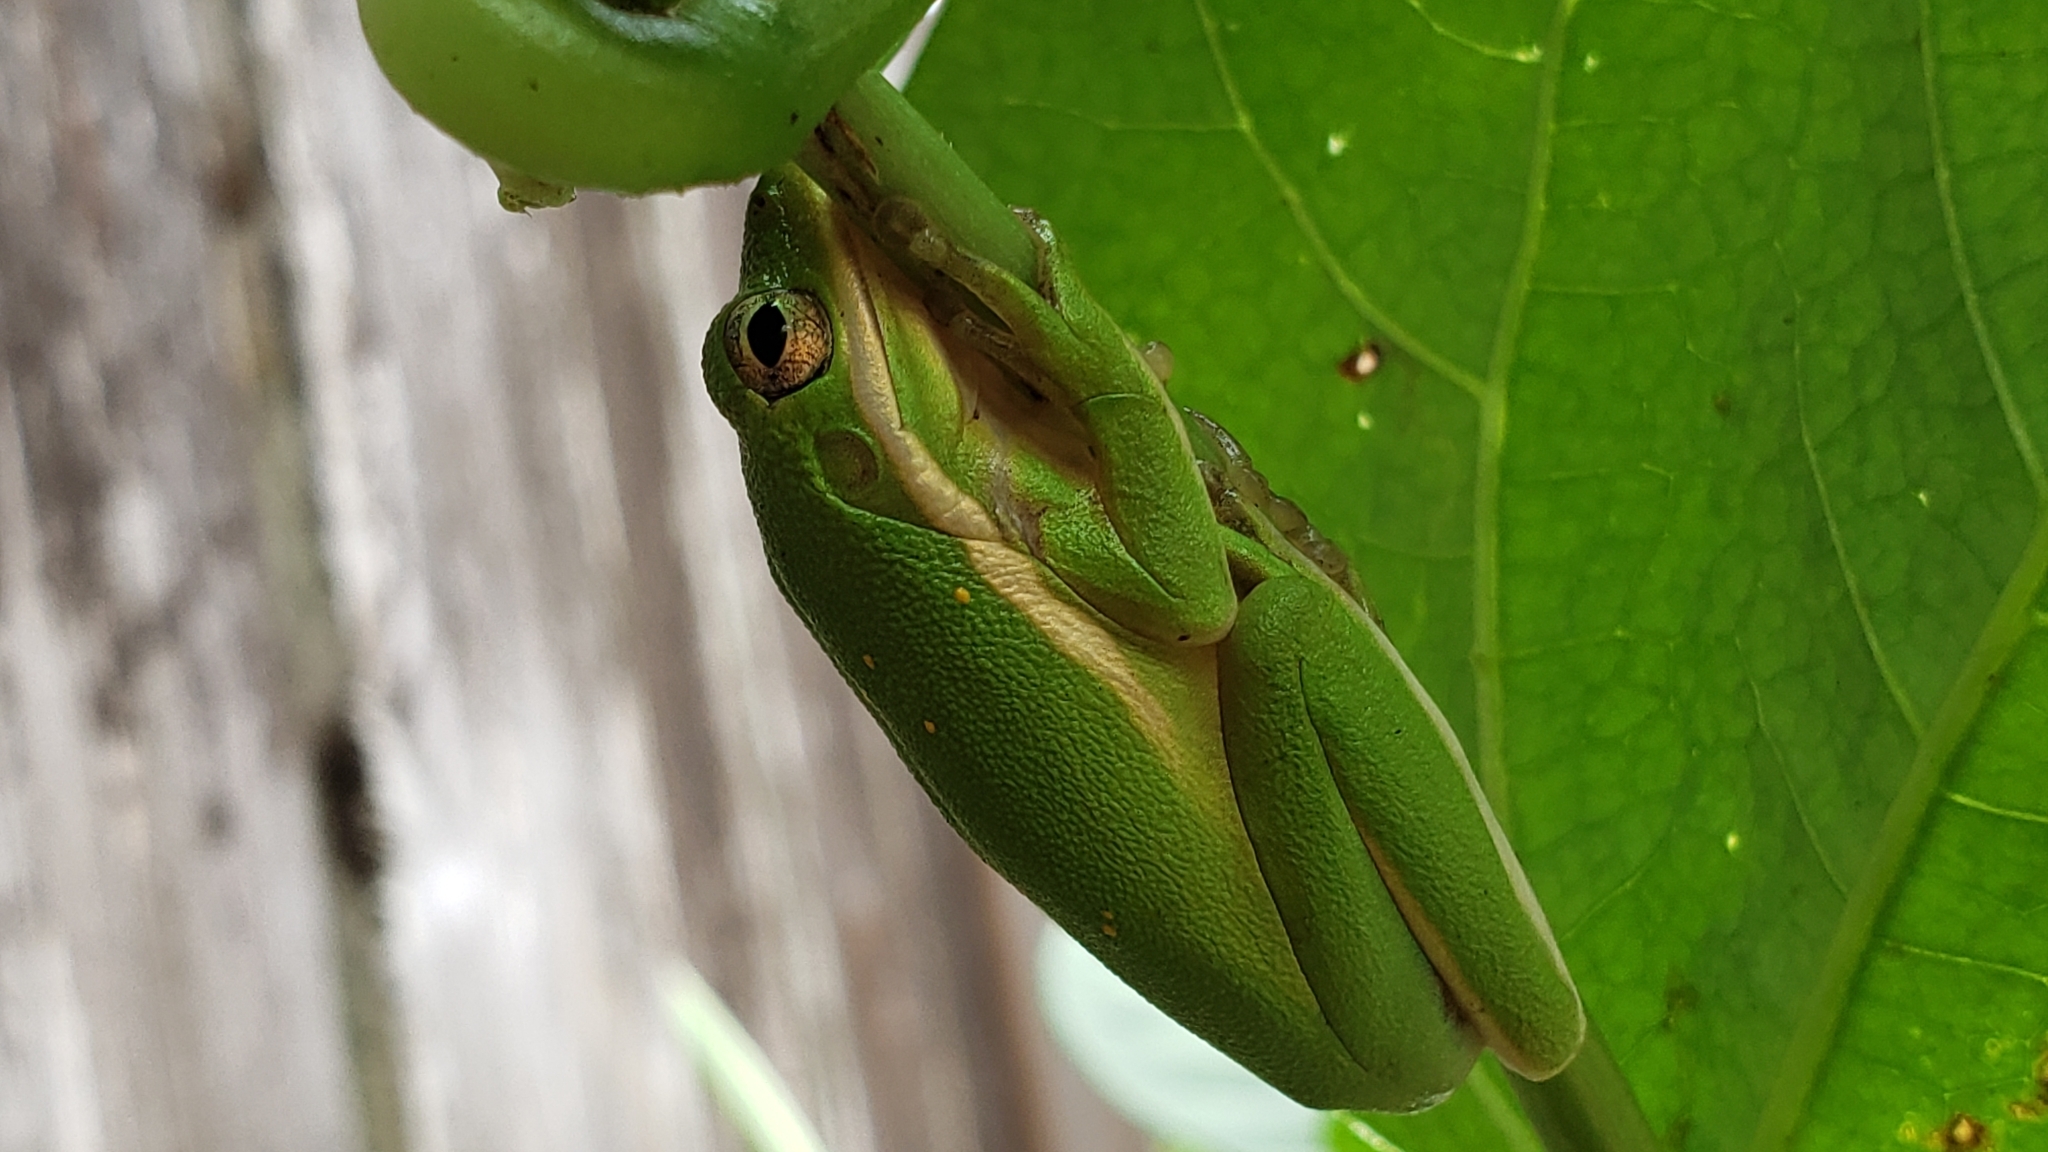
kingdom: Animalia
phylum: Chordata
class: Amphibia
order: Anura
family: Hylidae
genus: Dryophytes
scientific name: Dryophytes cinereus
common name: Green treefrog
